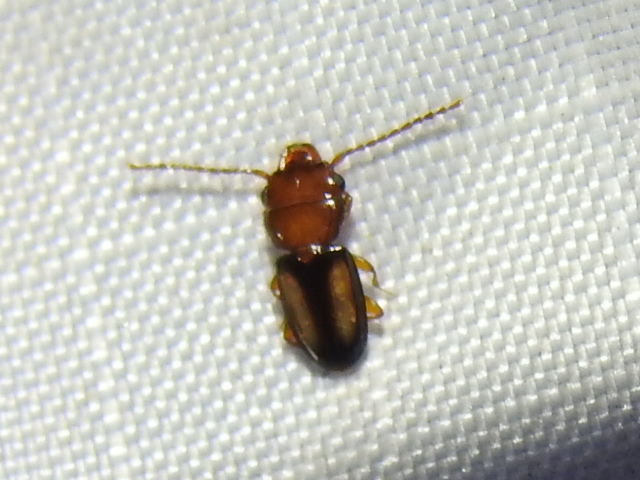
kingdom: Animalia
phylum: Arthropoda
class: Insecta
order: Coleoptera
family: Laemophloeidae
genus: Laemophloeus
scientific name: Laemophloeus terminalis
